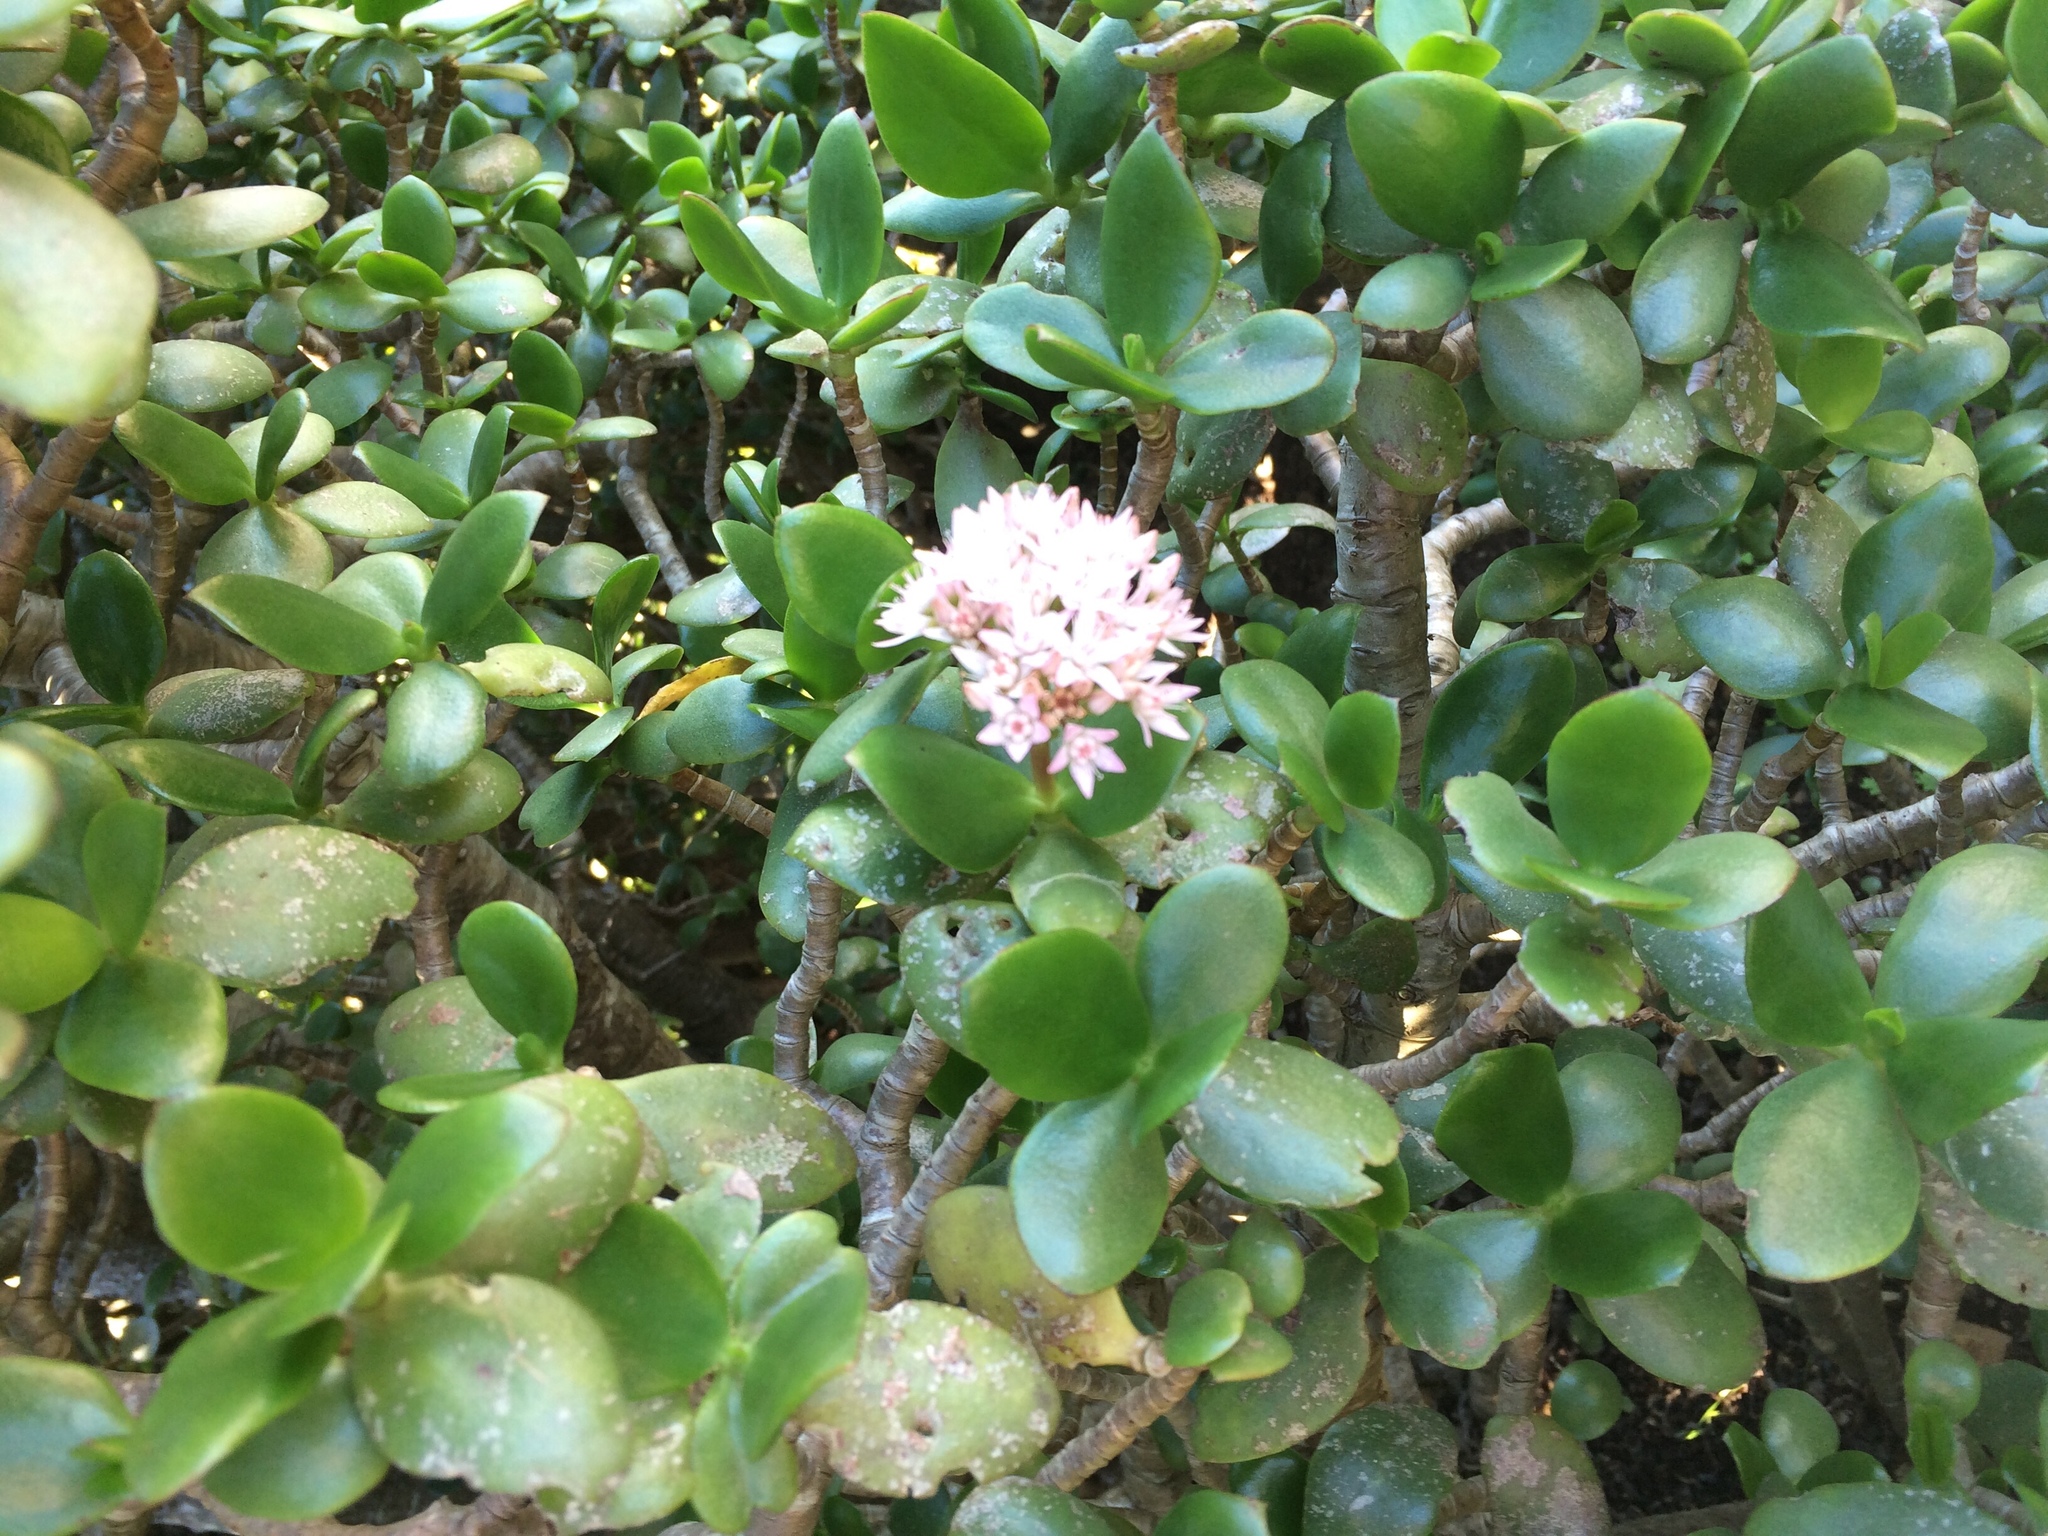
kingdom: Plantae
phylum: Tracheophyta
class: Magnoliopsida
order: Saxifragales
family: Crassulaceae
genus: Crassula
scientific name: Crassula ovata
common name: Jade plant
